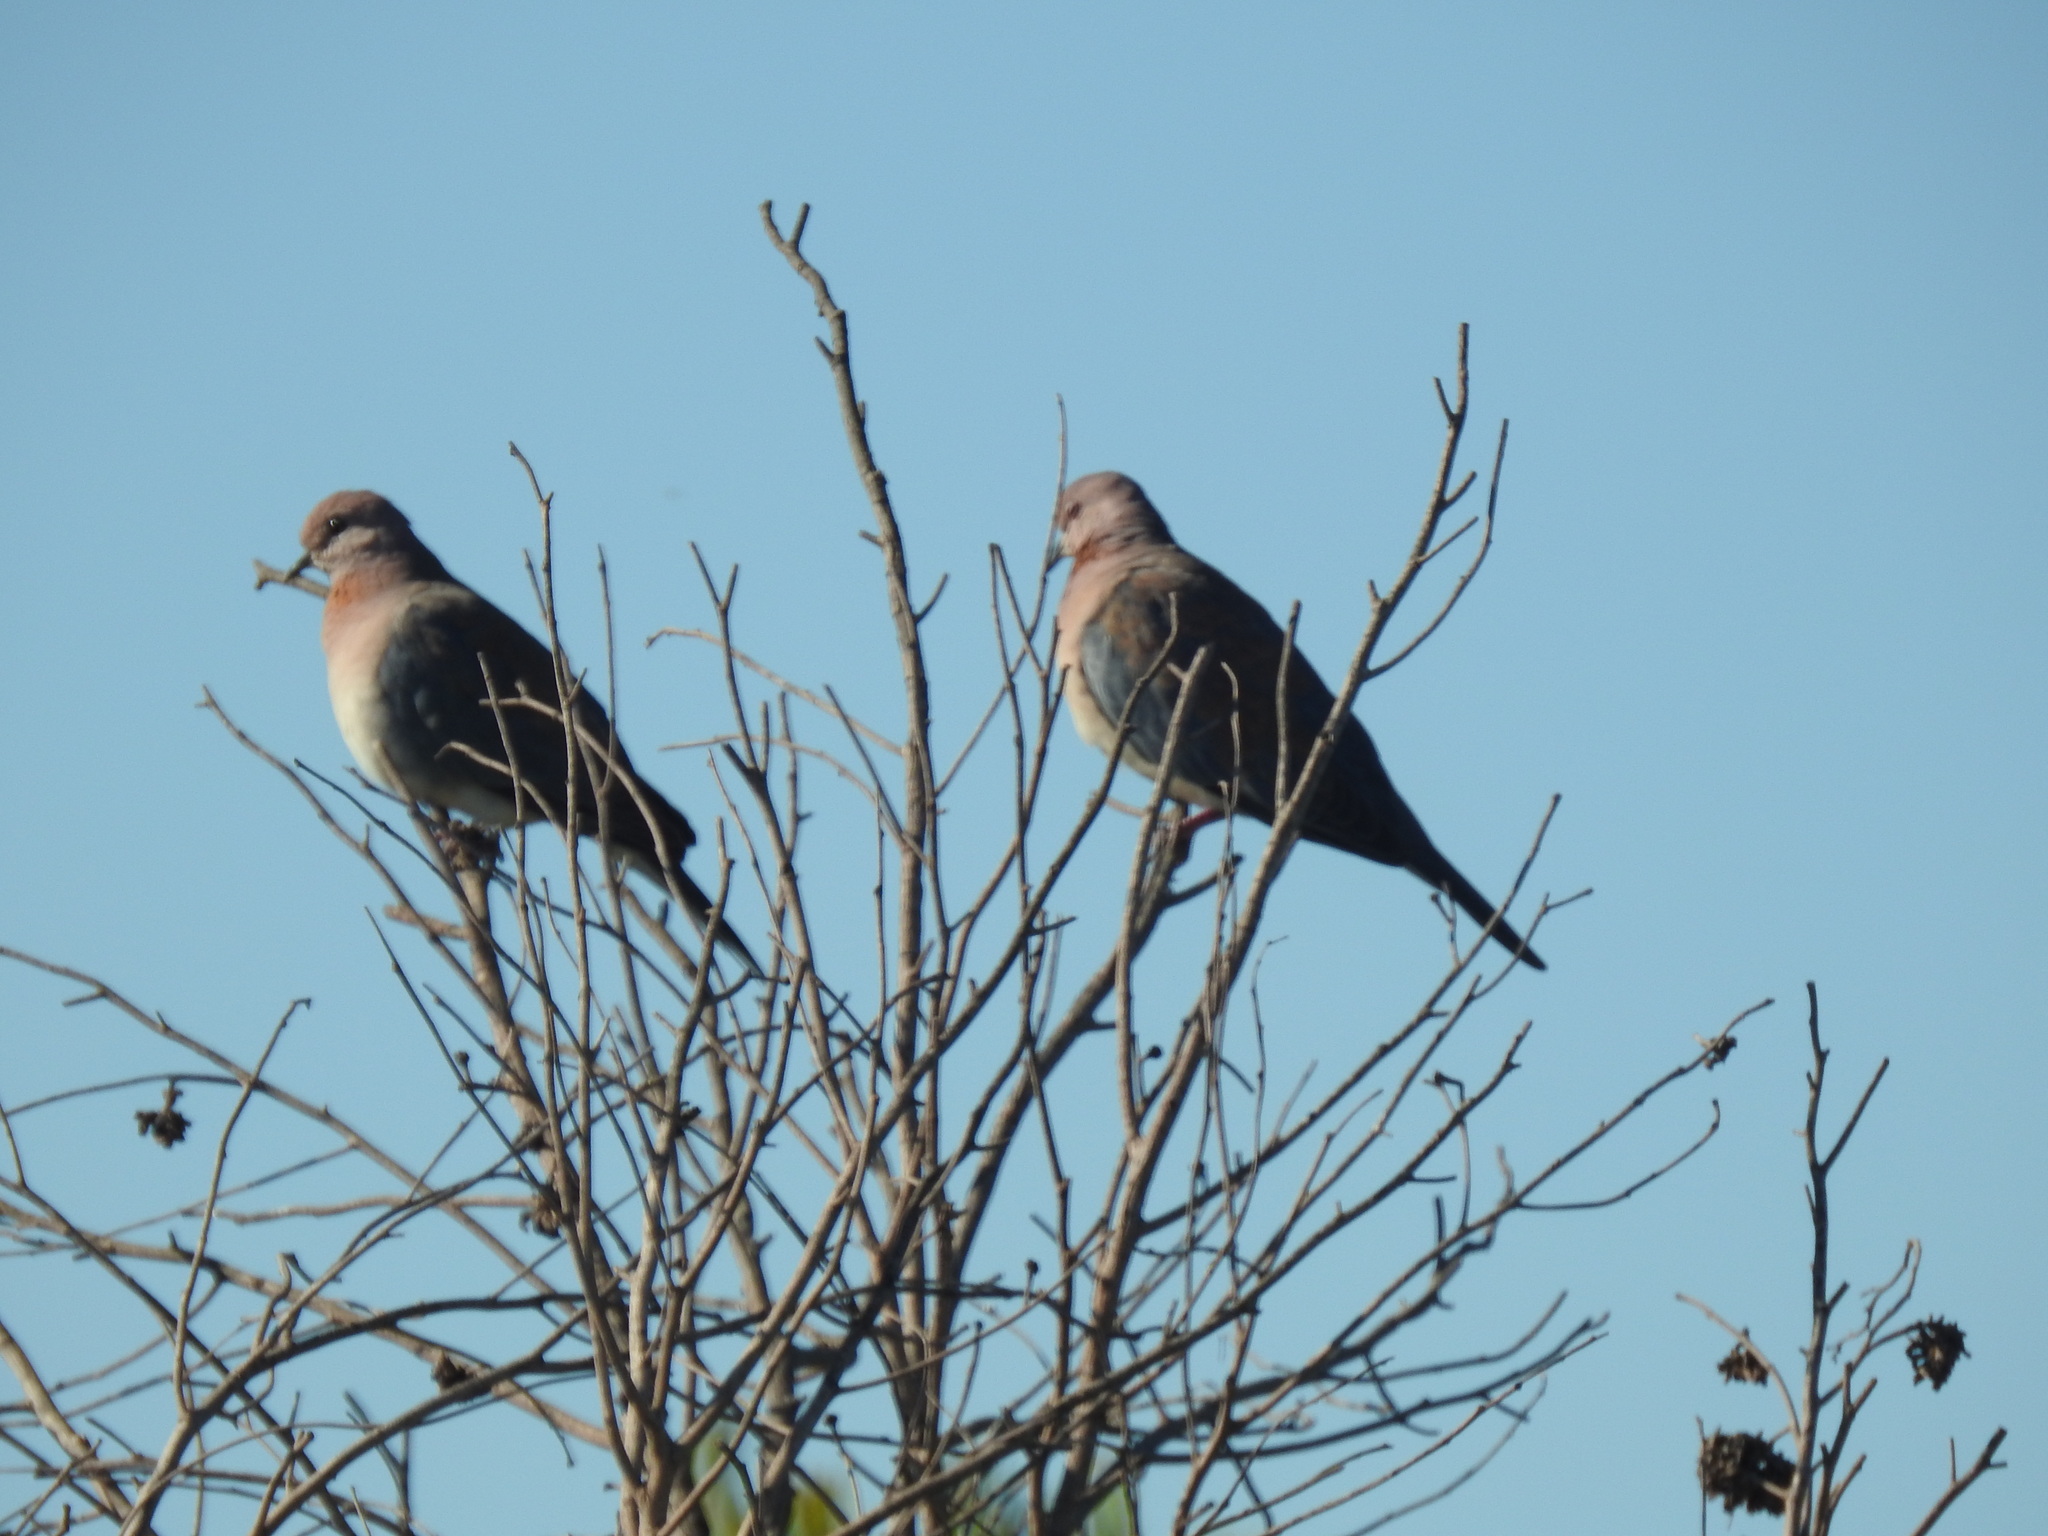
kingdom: Animalia
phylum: Chordata
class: Aves
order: Columbiformes
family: Columbidae
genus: Spilopelia
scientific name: Spilopelia senegalensis
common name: Laughing dove
